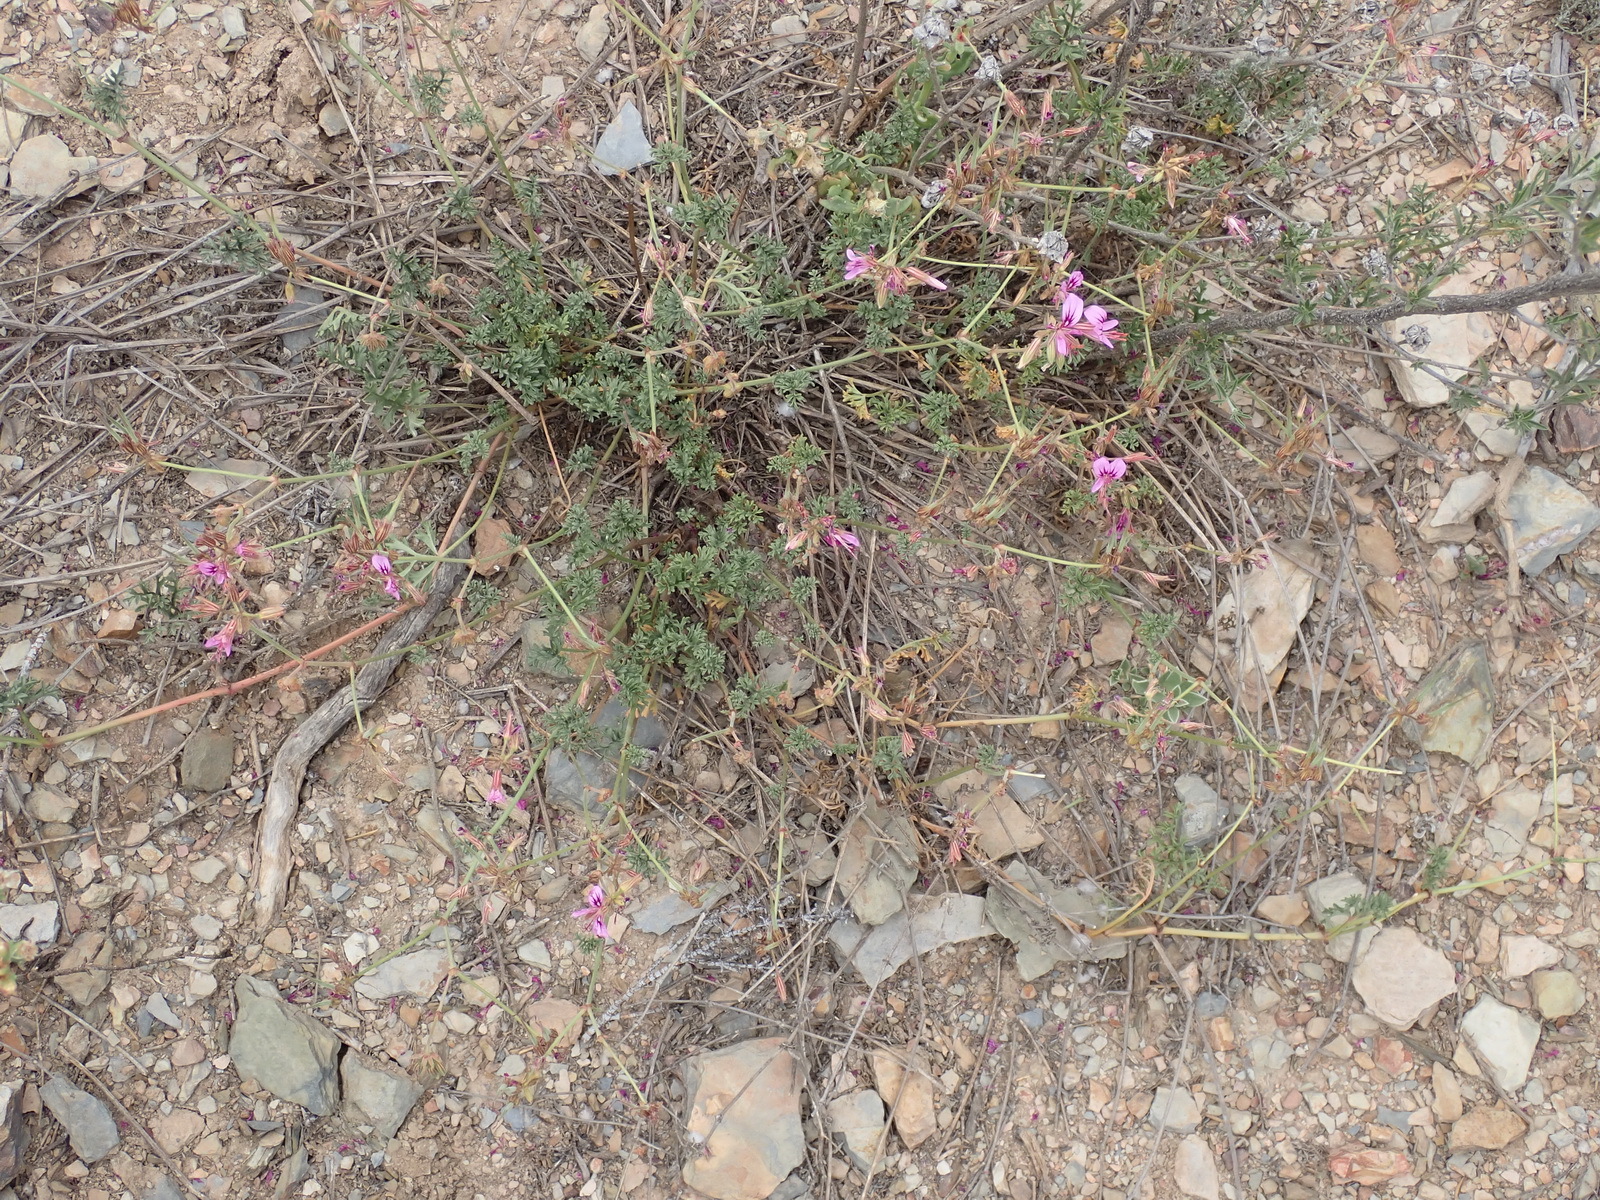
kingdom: Plantae
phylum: Tracheophyta
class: Magnoliopsida
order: Geraniales
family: Geraniaceae
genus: Pelargonium
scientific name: Pelargonium multicaule
